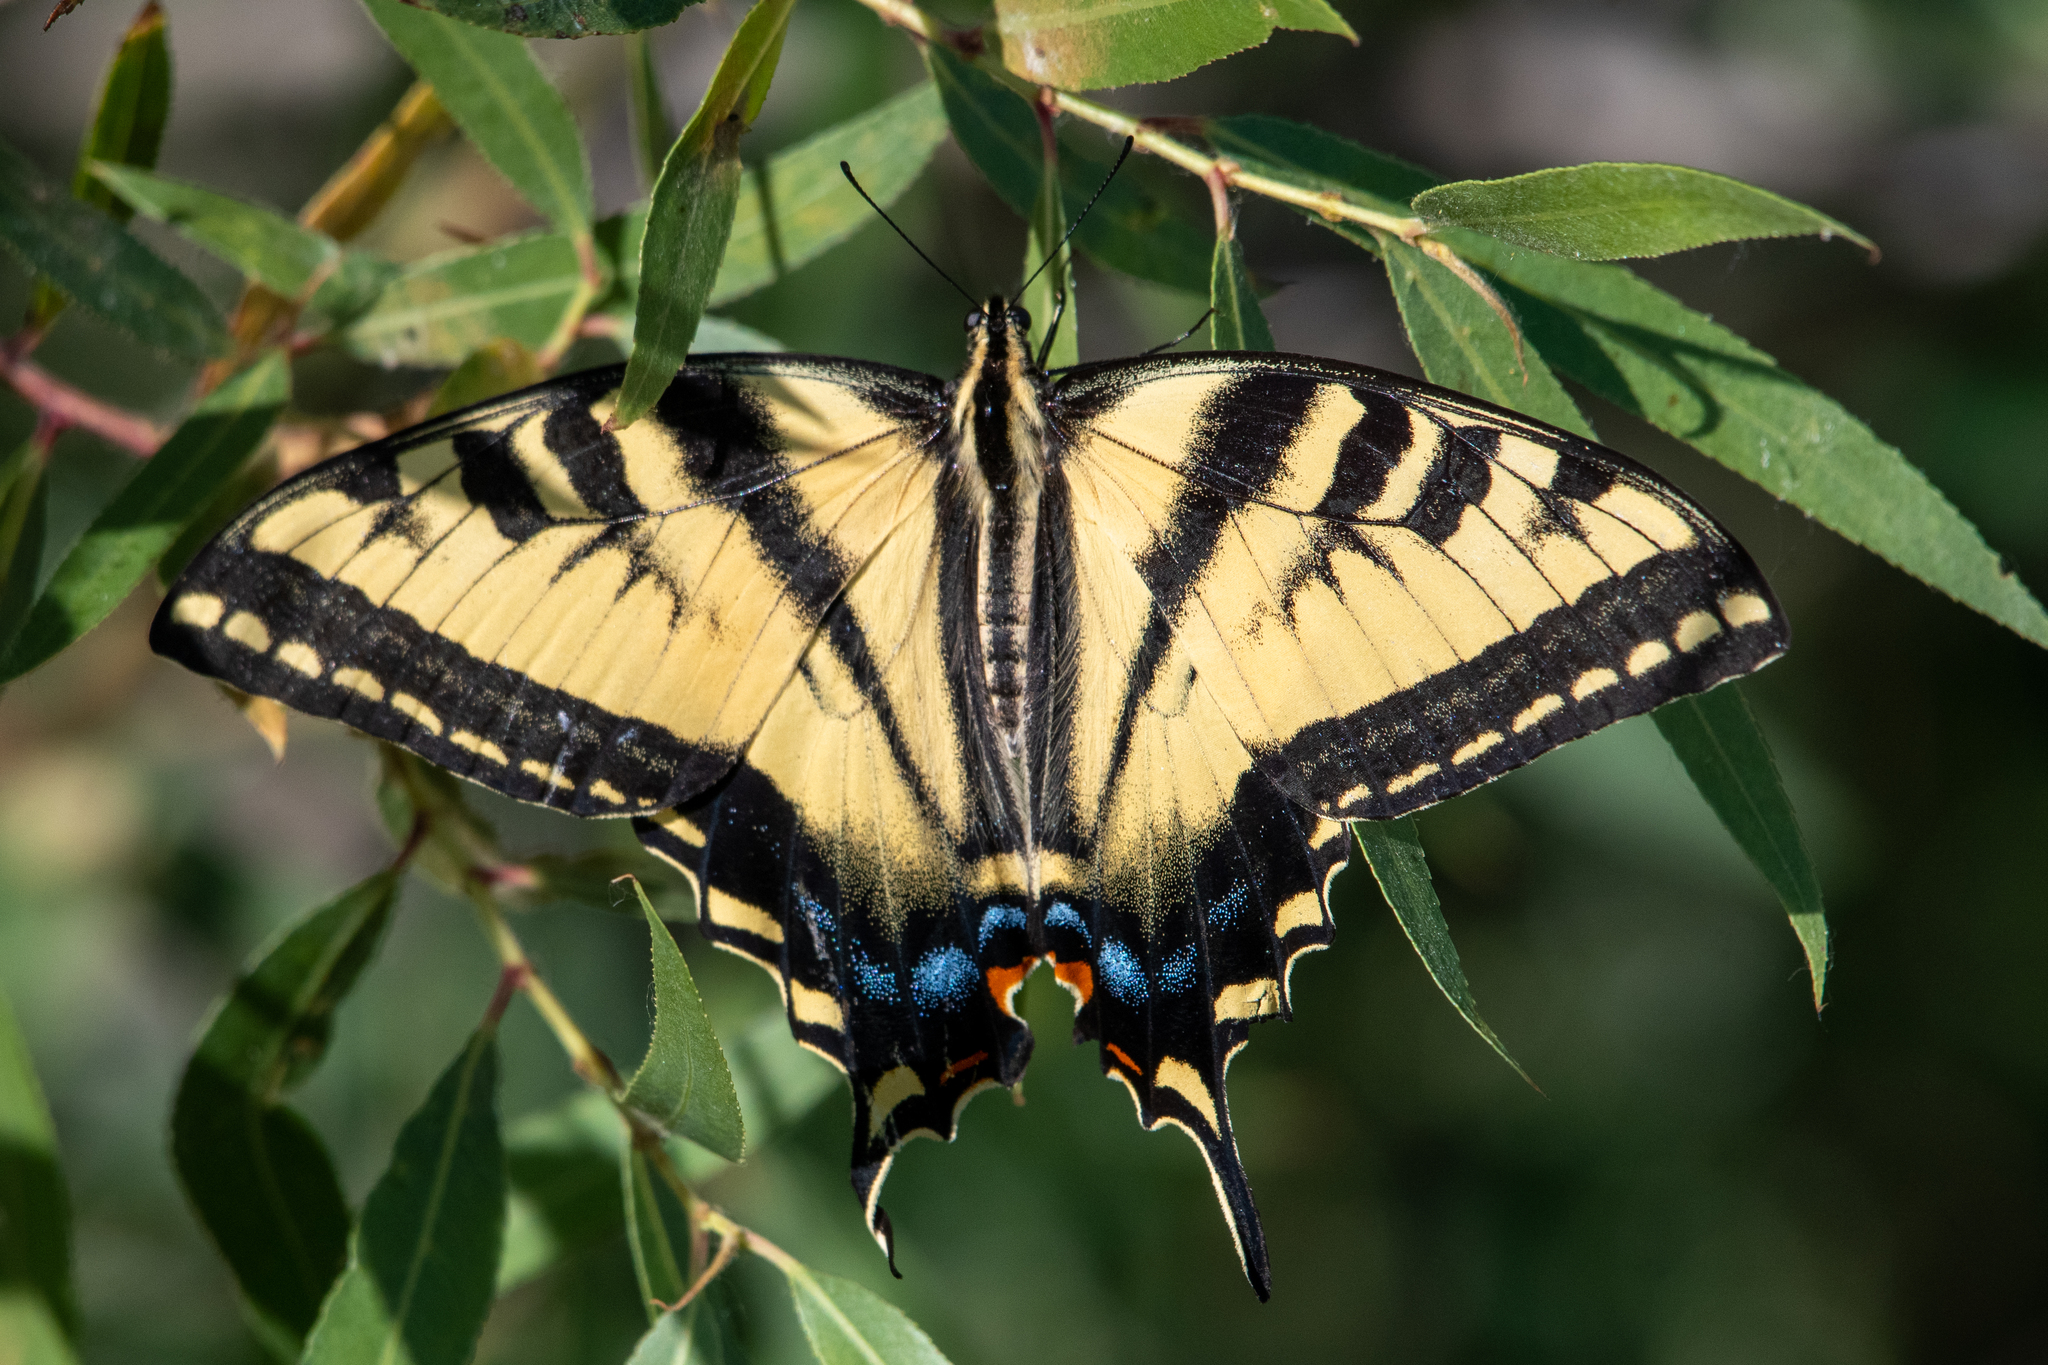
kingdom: Animalia
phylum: Arthropoda
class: Insecta
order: Lepidoptera
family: Papilionidae
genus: Papilio
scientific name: Papilio rutulus
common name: Western tiger swallowtail
